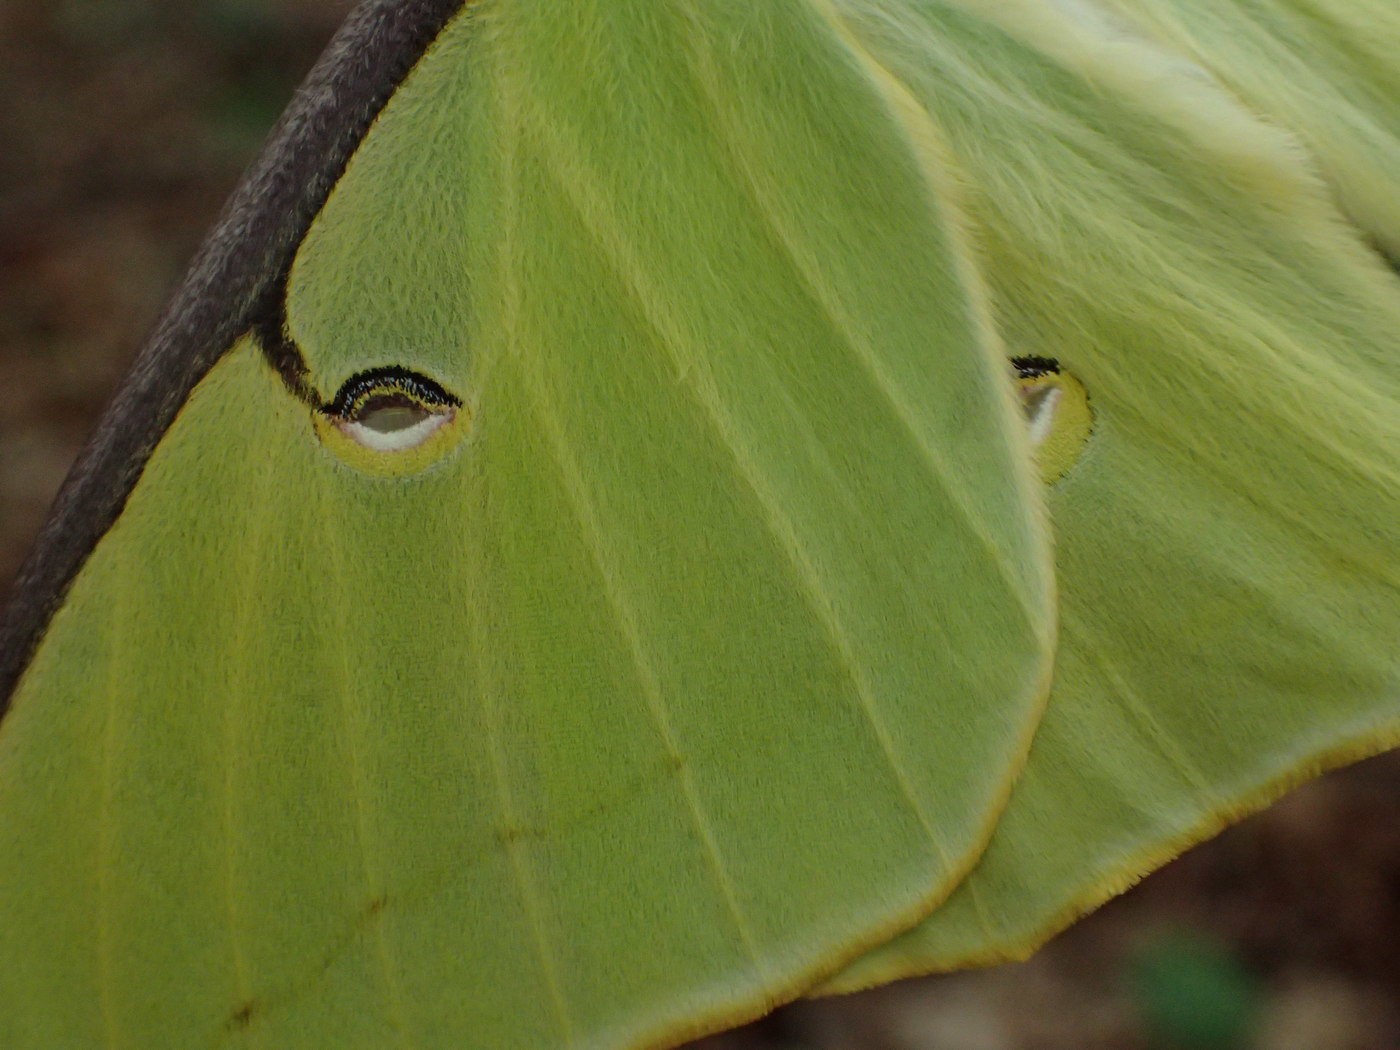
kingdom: Animalia
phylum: Arthropoda
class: Insecta
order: Lepidoptera
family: Saturniidae
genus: Actias
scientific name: Actias luna
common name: Luna moth
